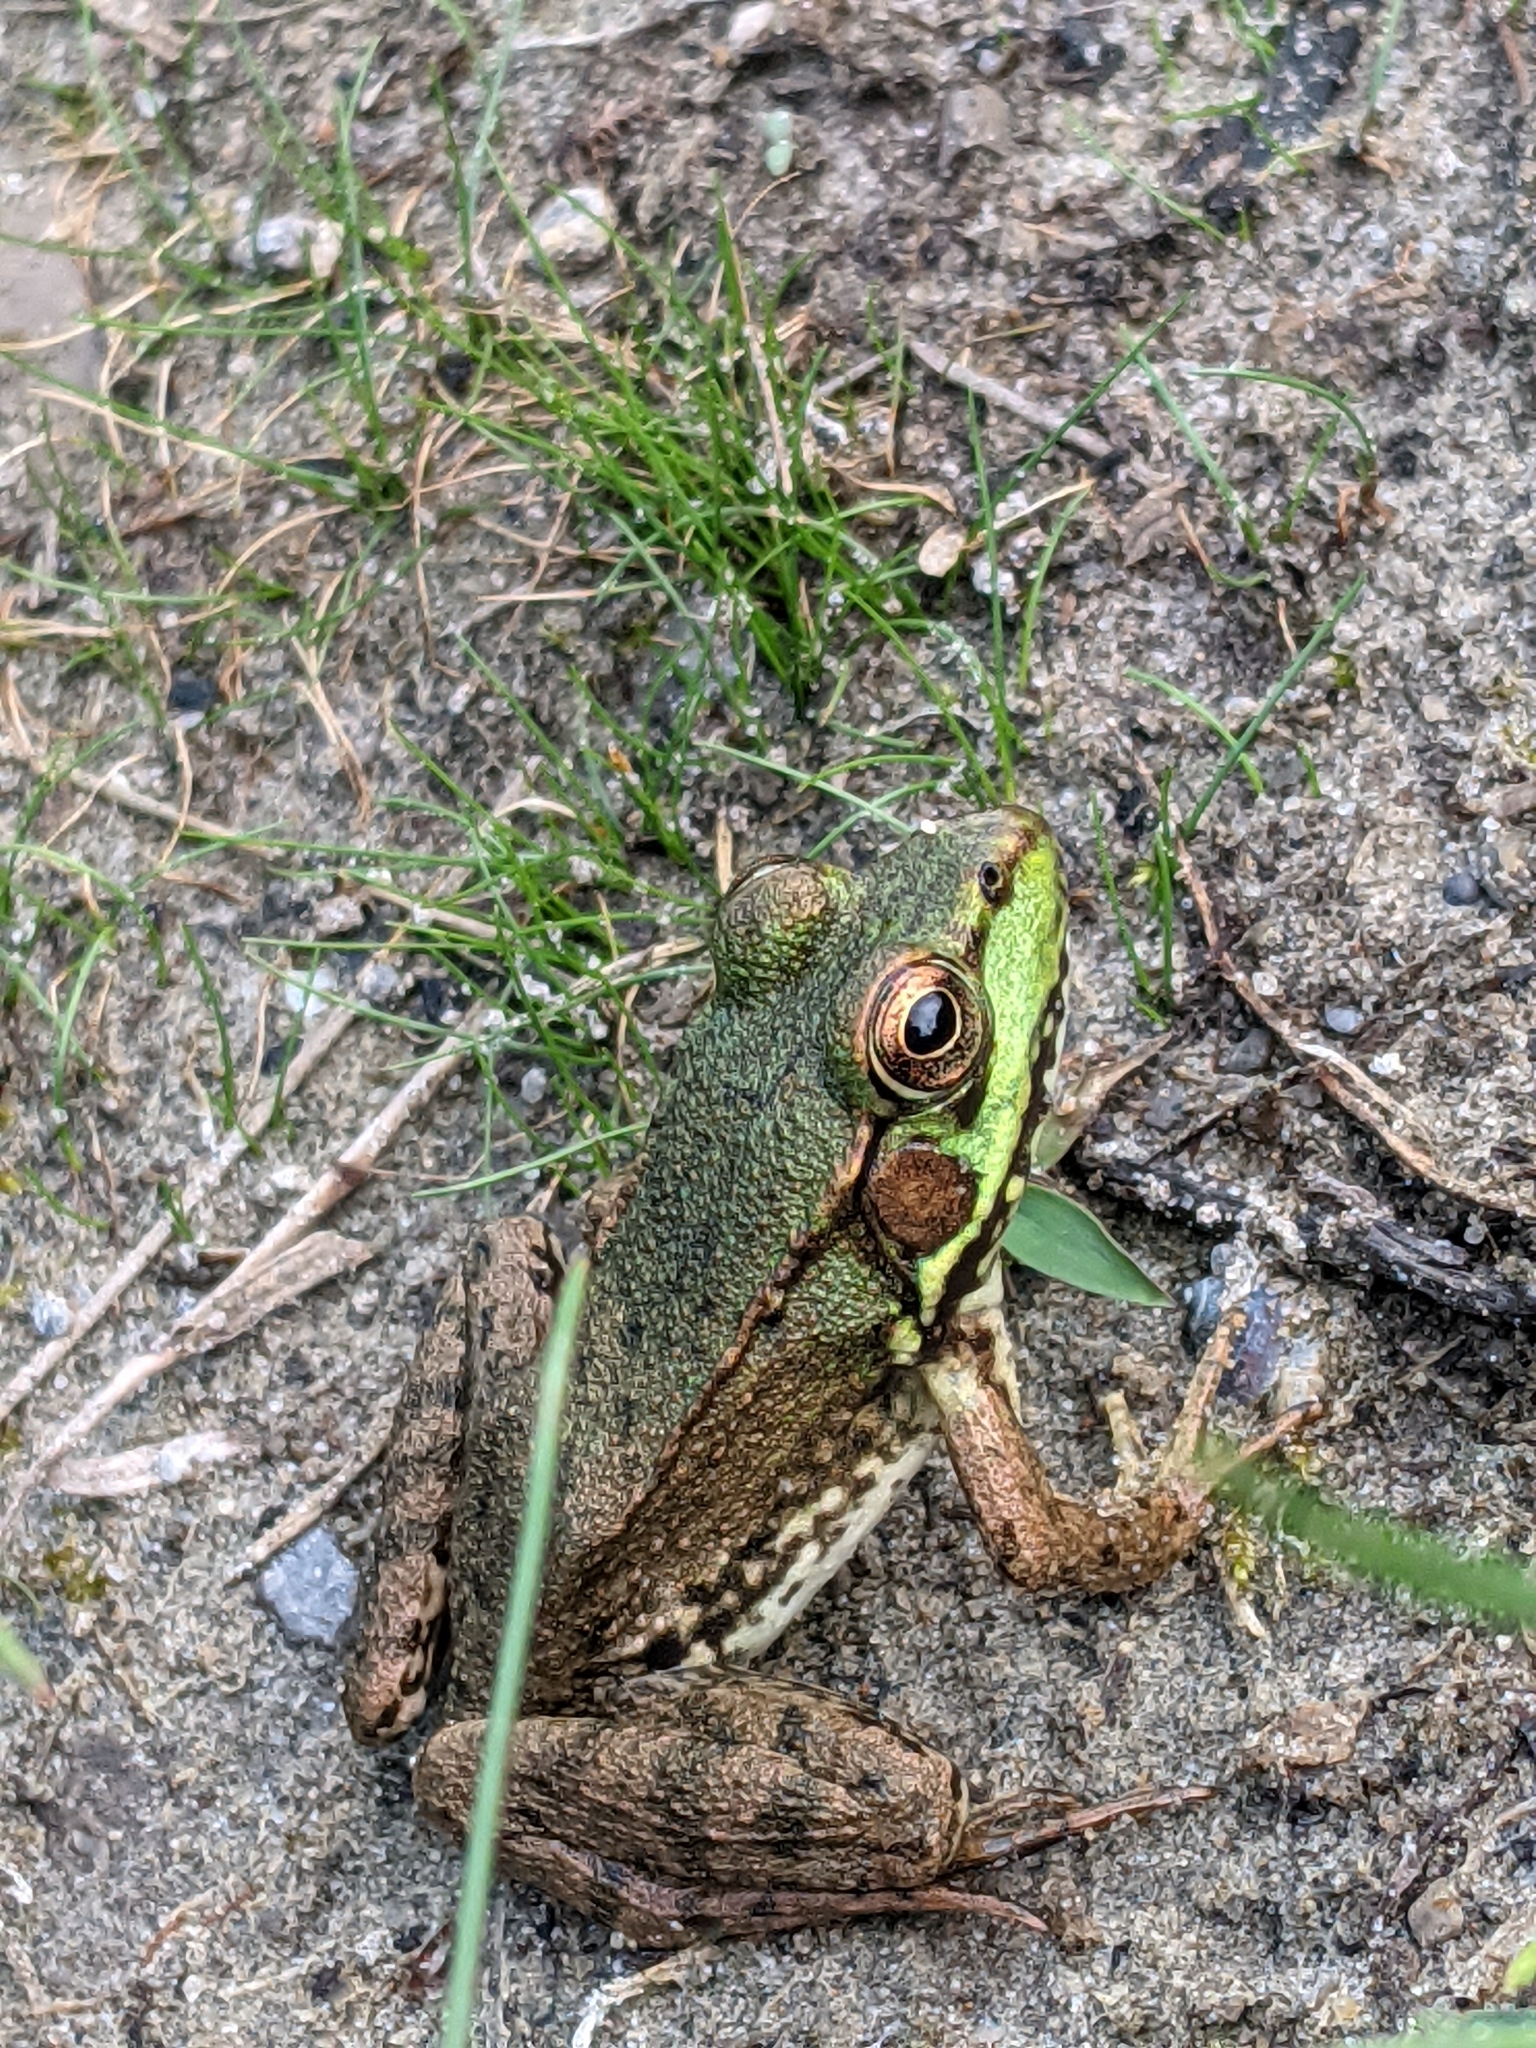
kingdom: Animalia
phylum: Chordata
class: Amphibia
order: Anura
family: Ranidae
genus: Lithobates
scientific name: Lithobates clamitans
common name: Green frog
